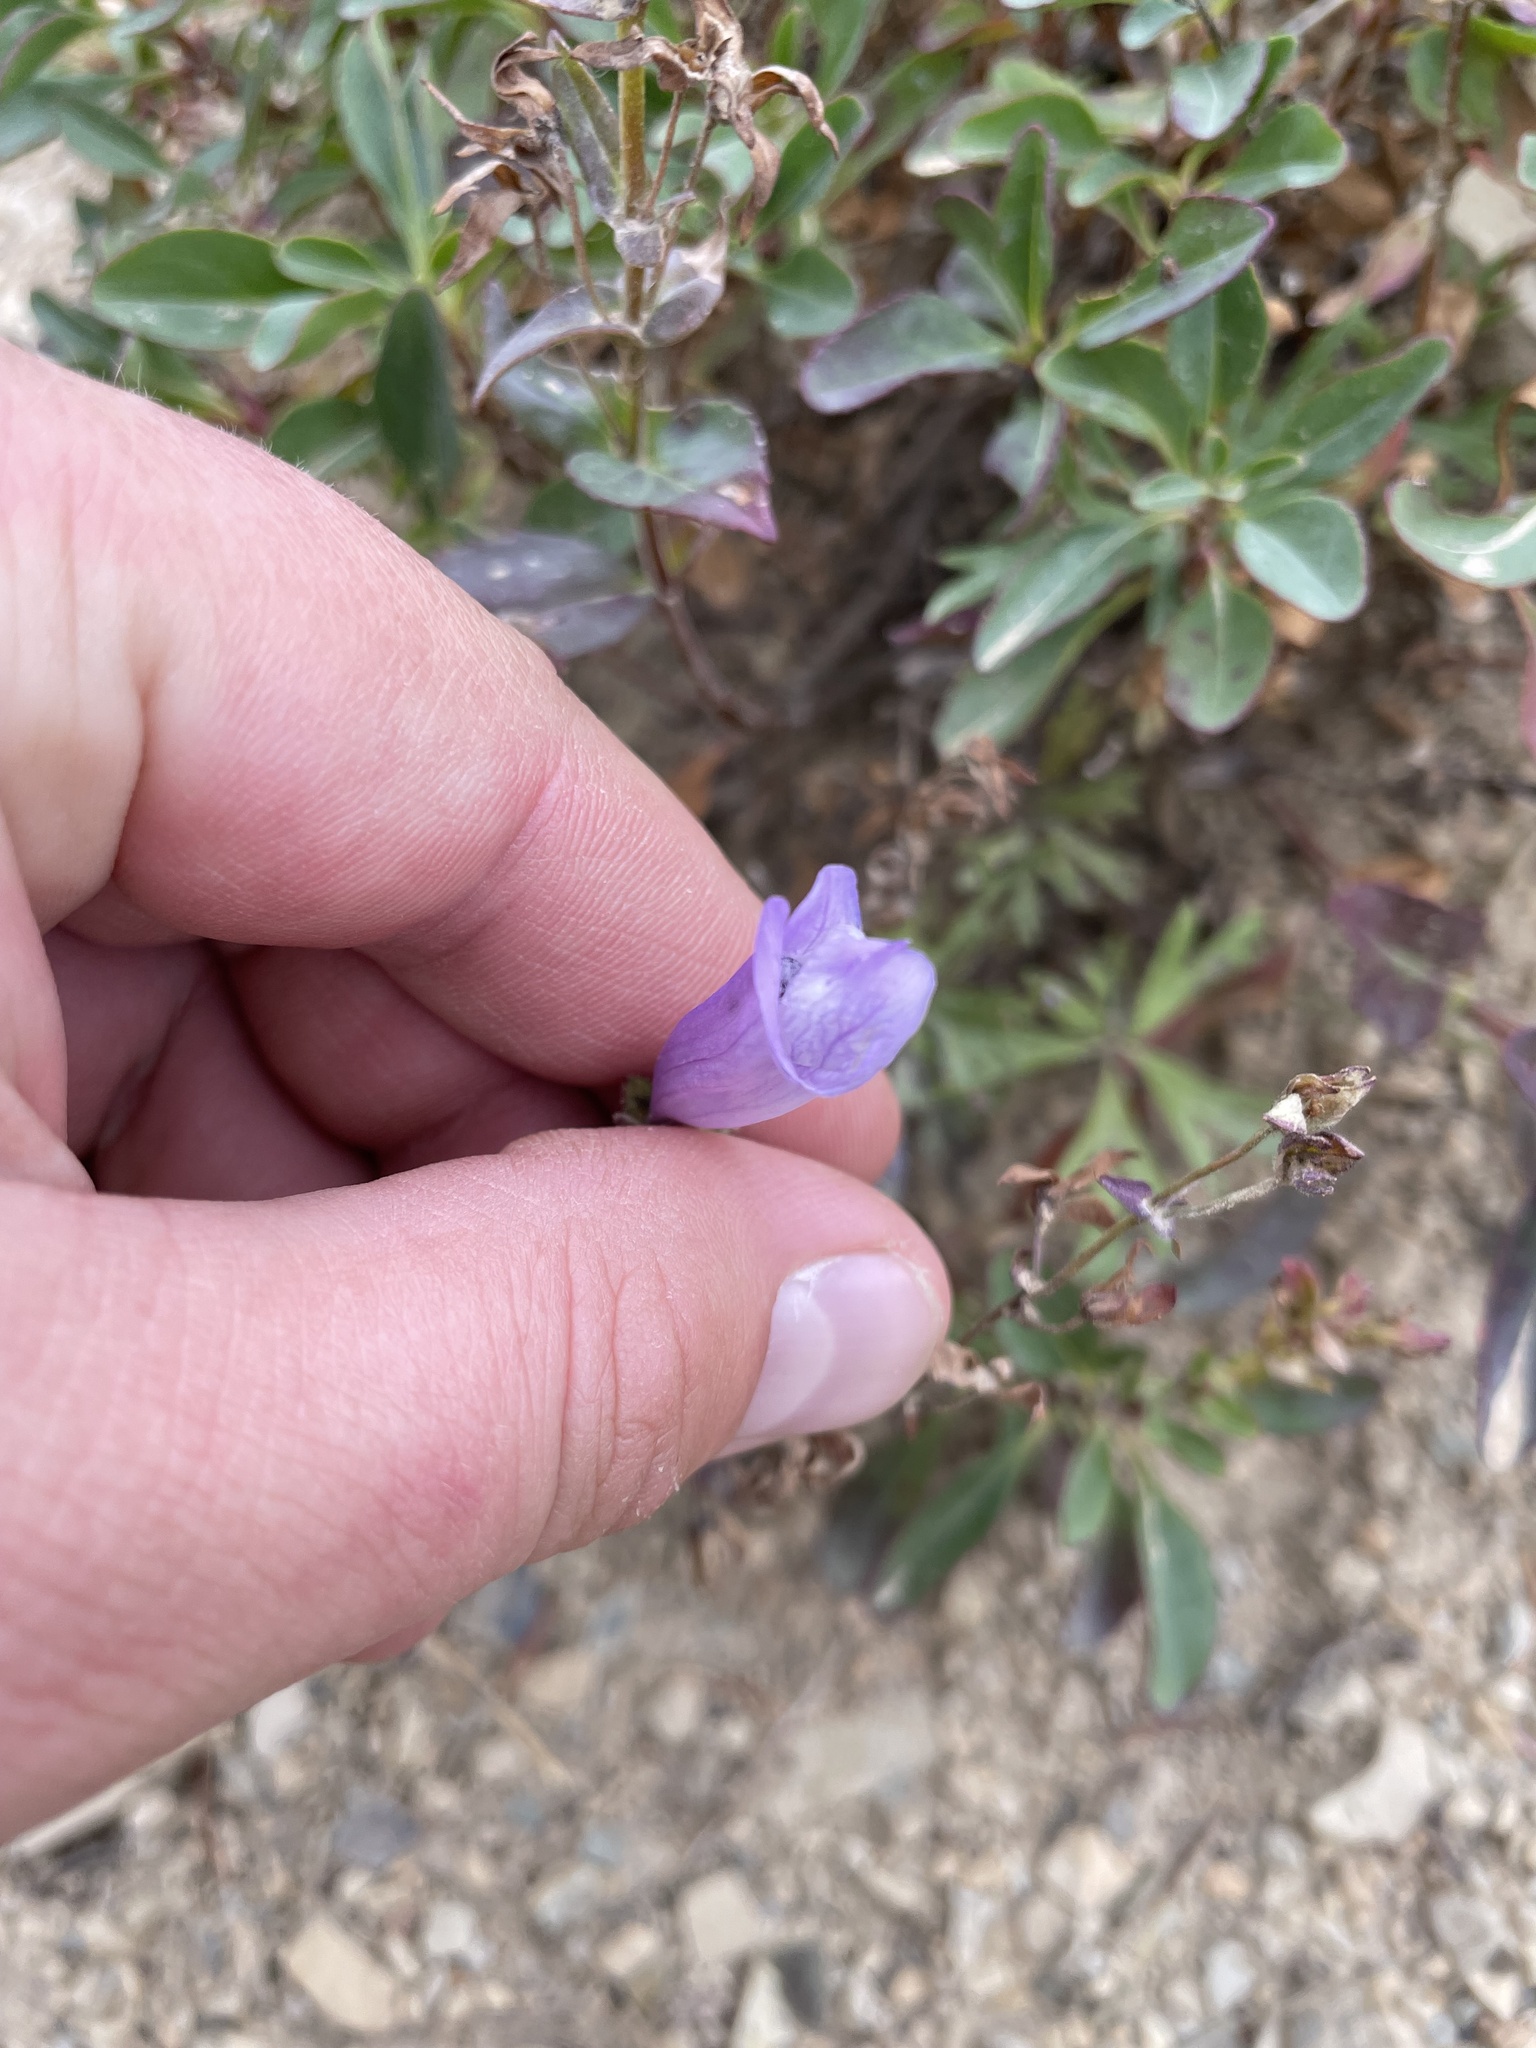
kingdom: Plantae
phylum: Tracheophyta
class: Magnoliopsida
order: Lamiales
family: Plantaginaceae
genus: Penstemon
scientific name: Penstemon ellipticus
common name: Alpine beardtongue
